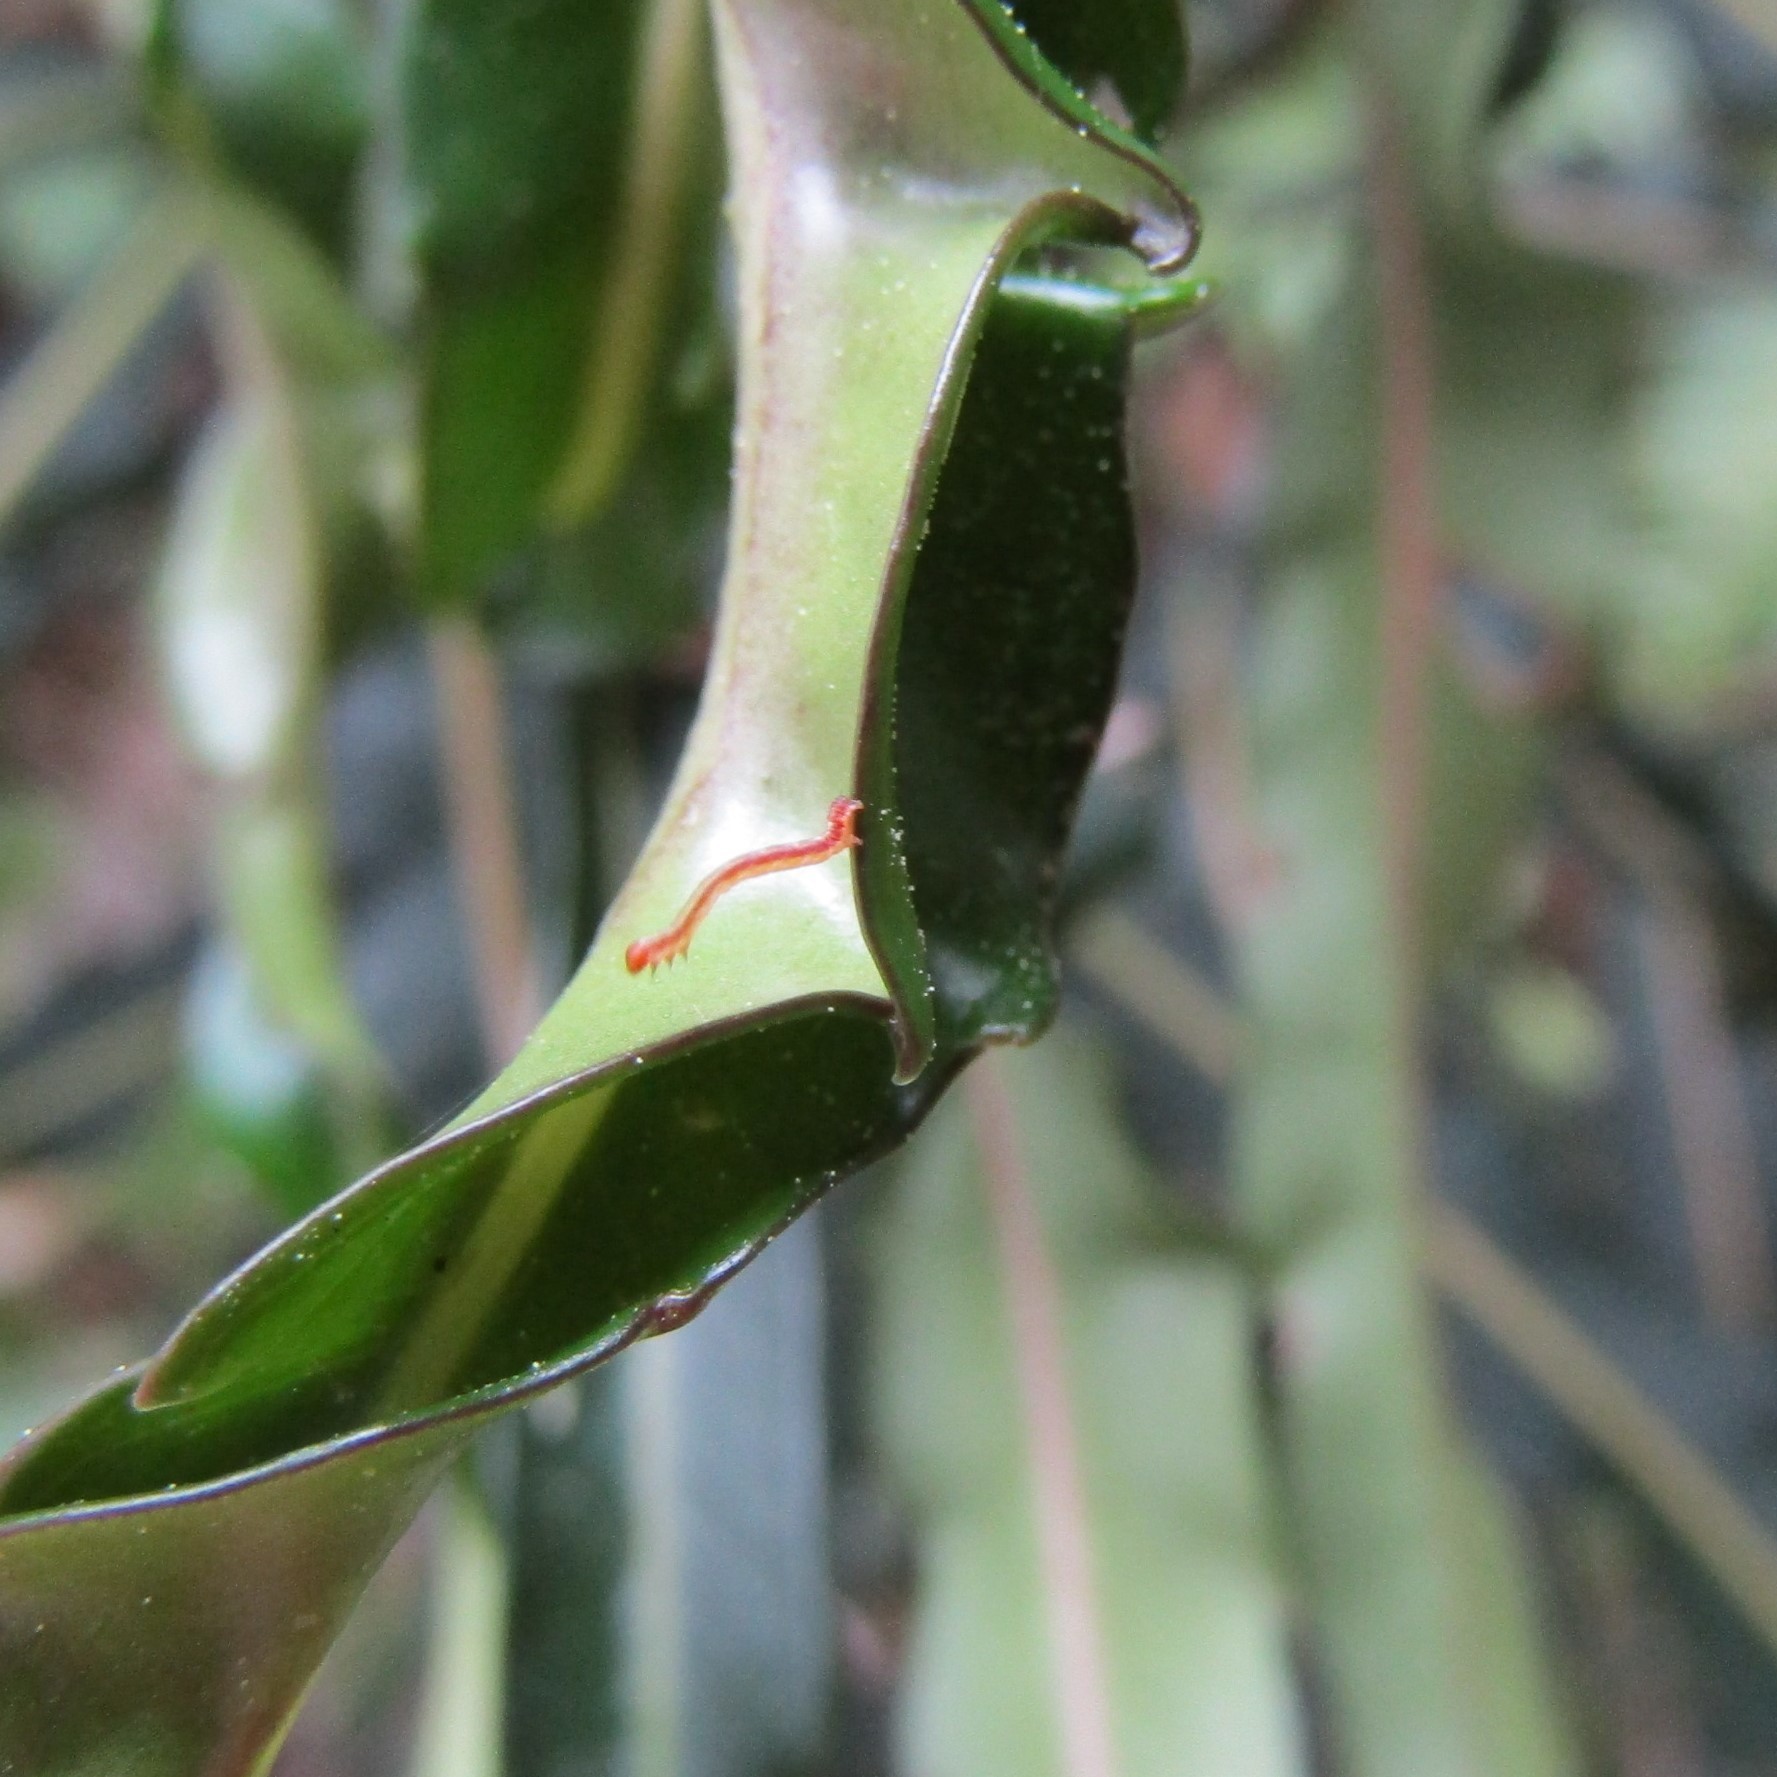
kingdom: Plantae
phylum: Tracheophyta
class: Magnoliopsida
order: Apiales
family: Araliaceae
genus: Pseudopanax
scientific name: Pseudopanax
